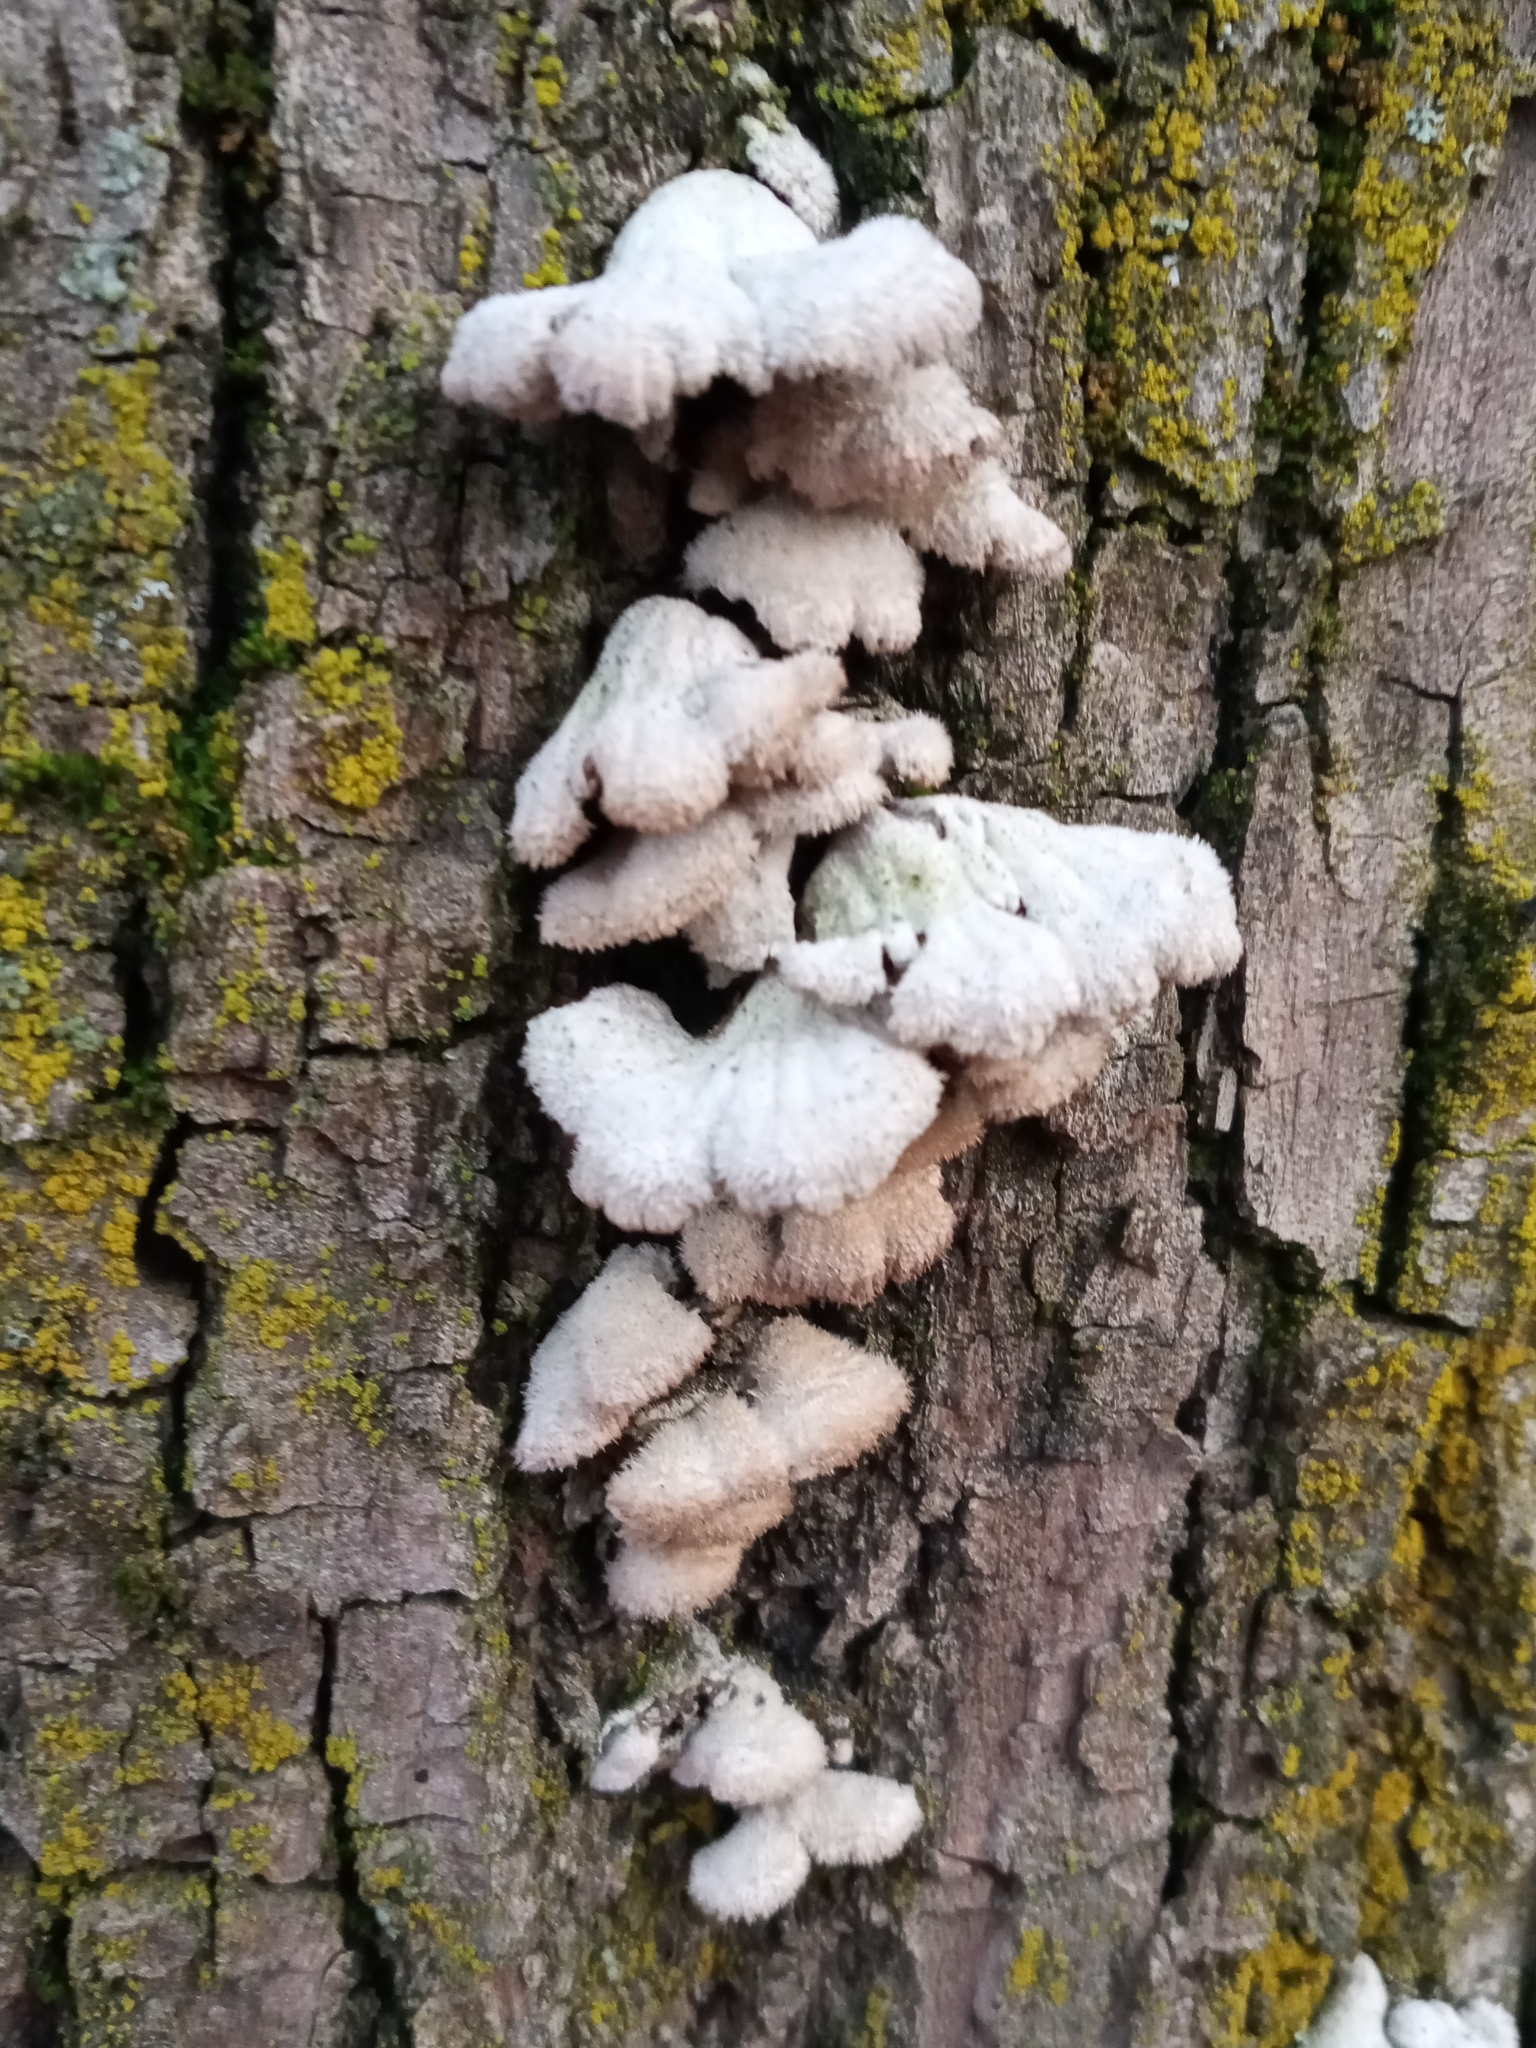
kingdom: Fungi
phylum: Basidiomycota
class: Agaricomycetes
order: Agaricales
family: Schizophyllaceae
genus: Schizophyllum
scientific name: Schizophyllum commune
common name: Common porecrust
